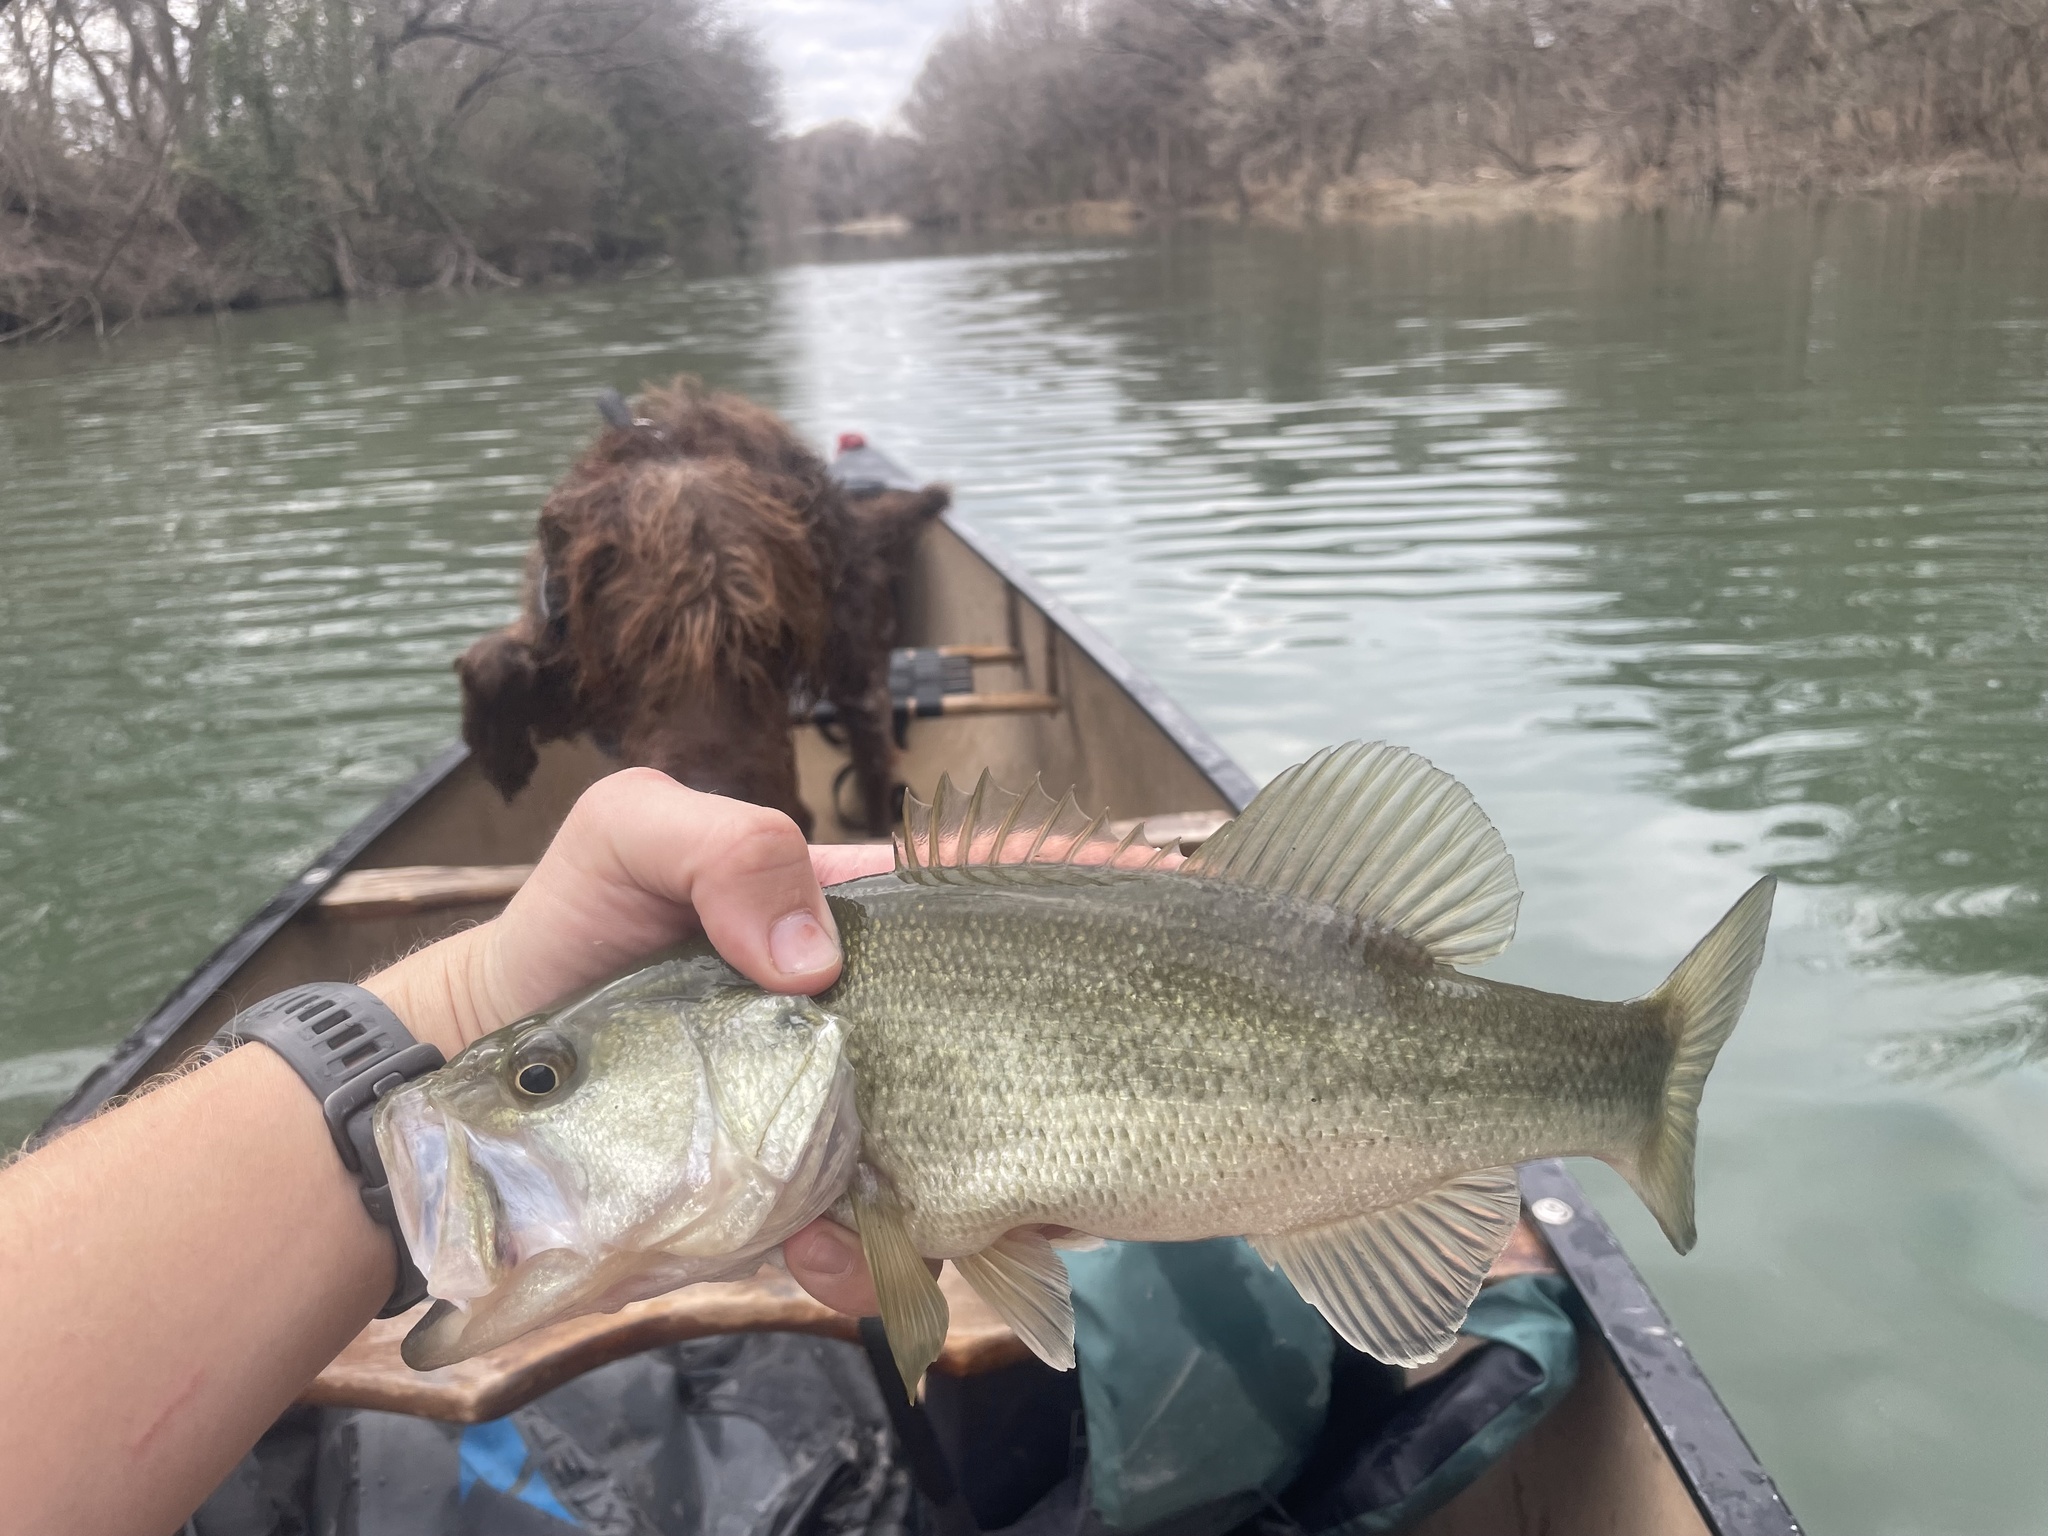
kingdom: Animalia
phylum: Chordata
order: Perciformes
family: Centrarchidae
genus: Micropterus
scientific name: Micropterus
